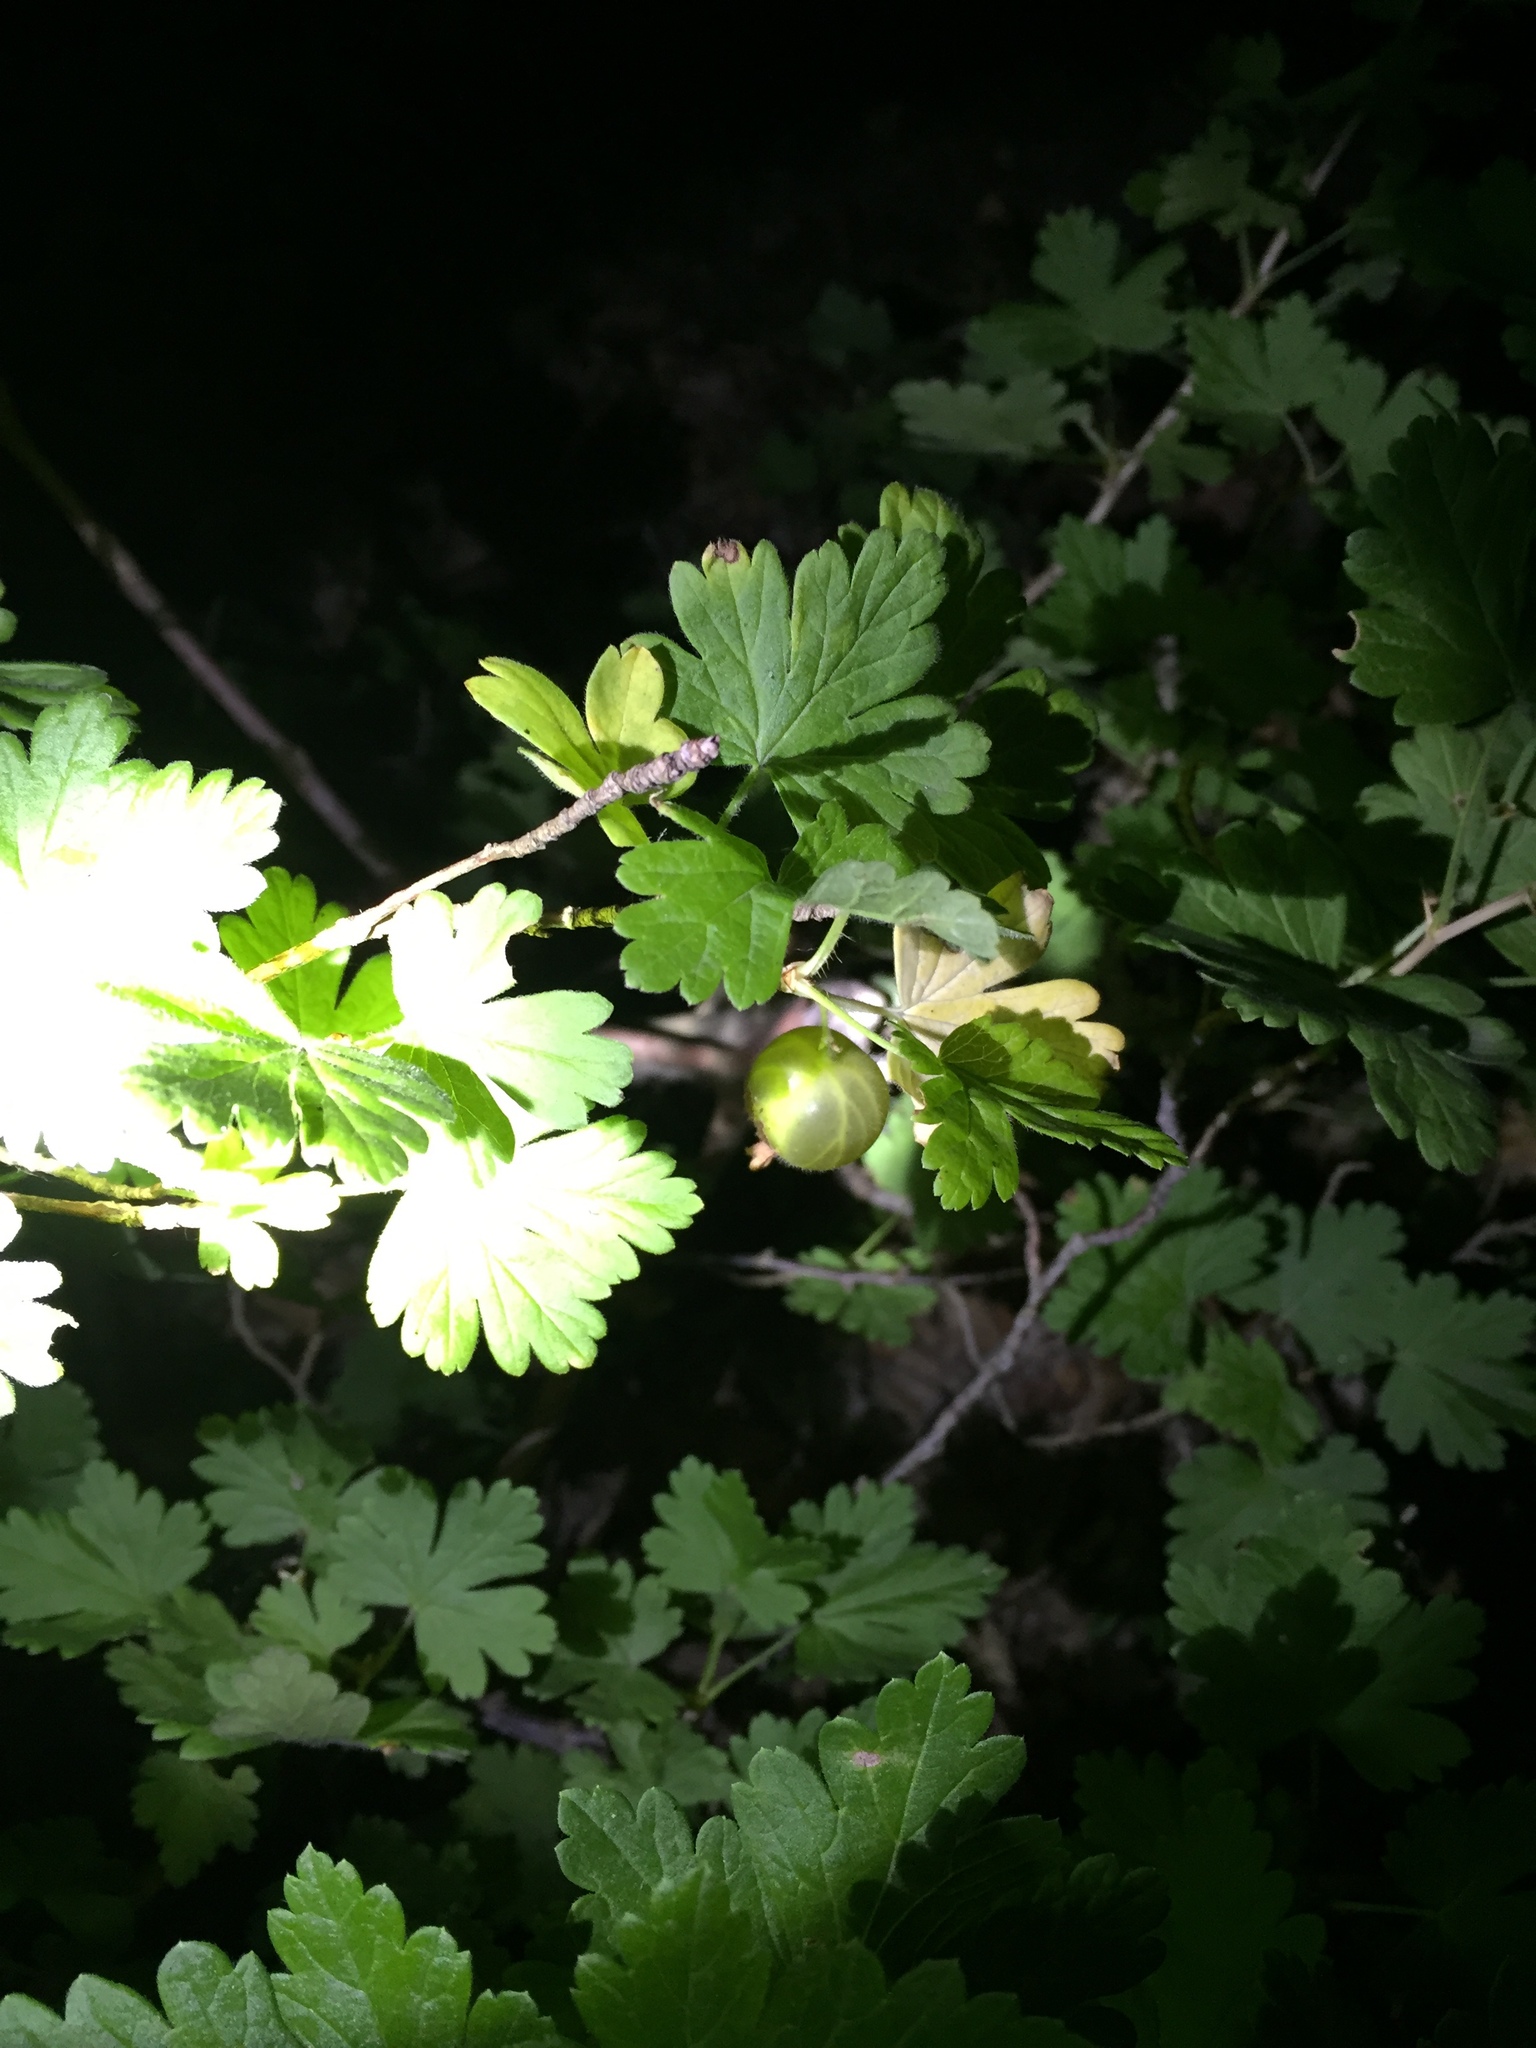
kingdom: Plantae
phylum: Tracheophyta
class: Magnoliopsida
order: Saxifragales
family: Grossulariaceae
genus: Ribes
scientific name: Ribes uva-crispa
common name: Gooseberry
